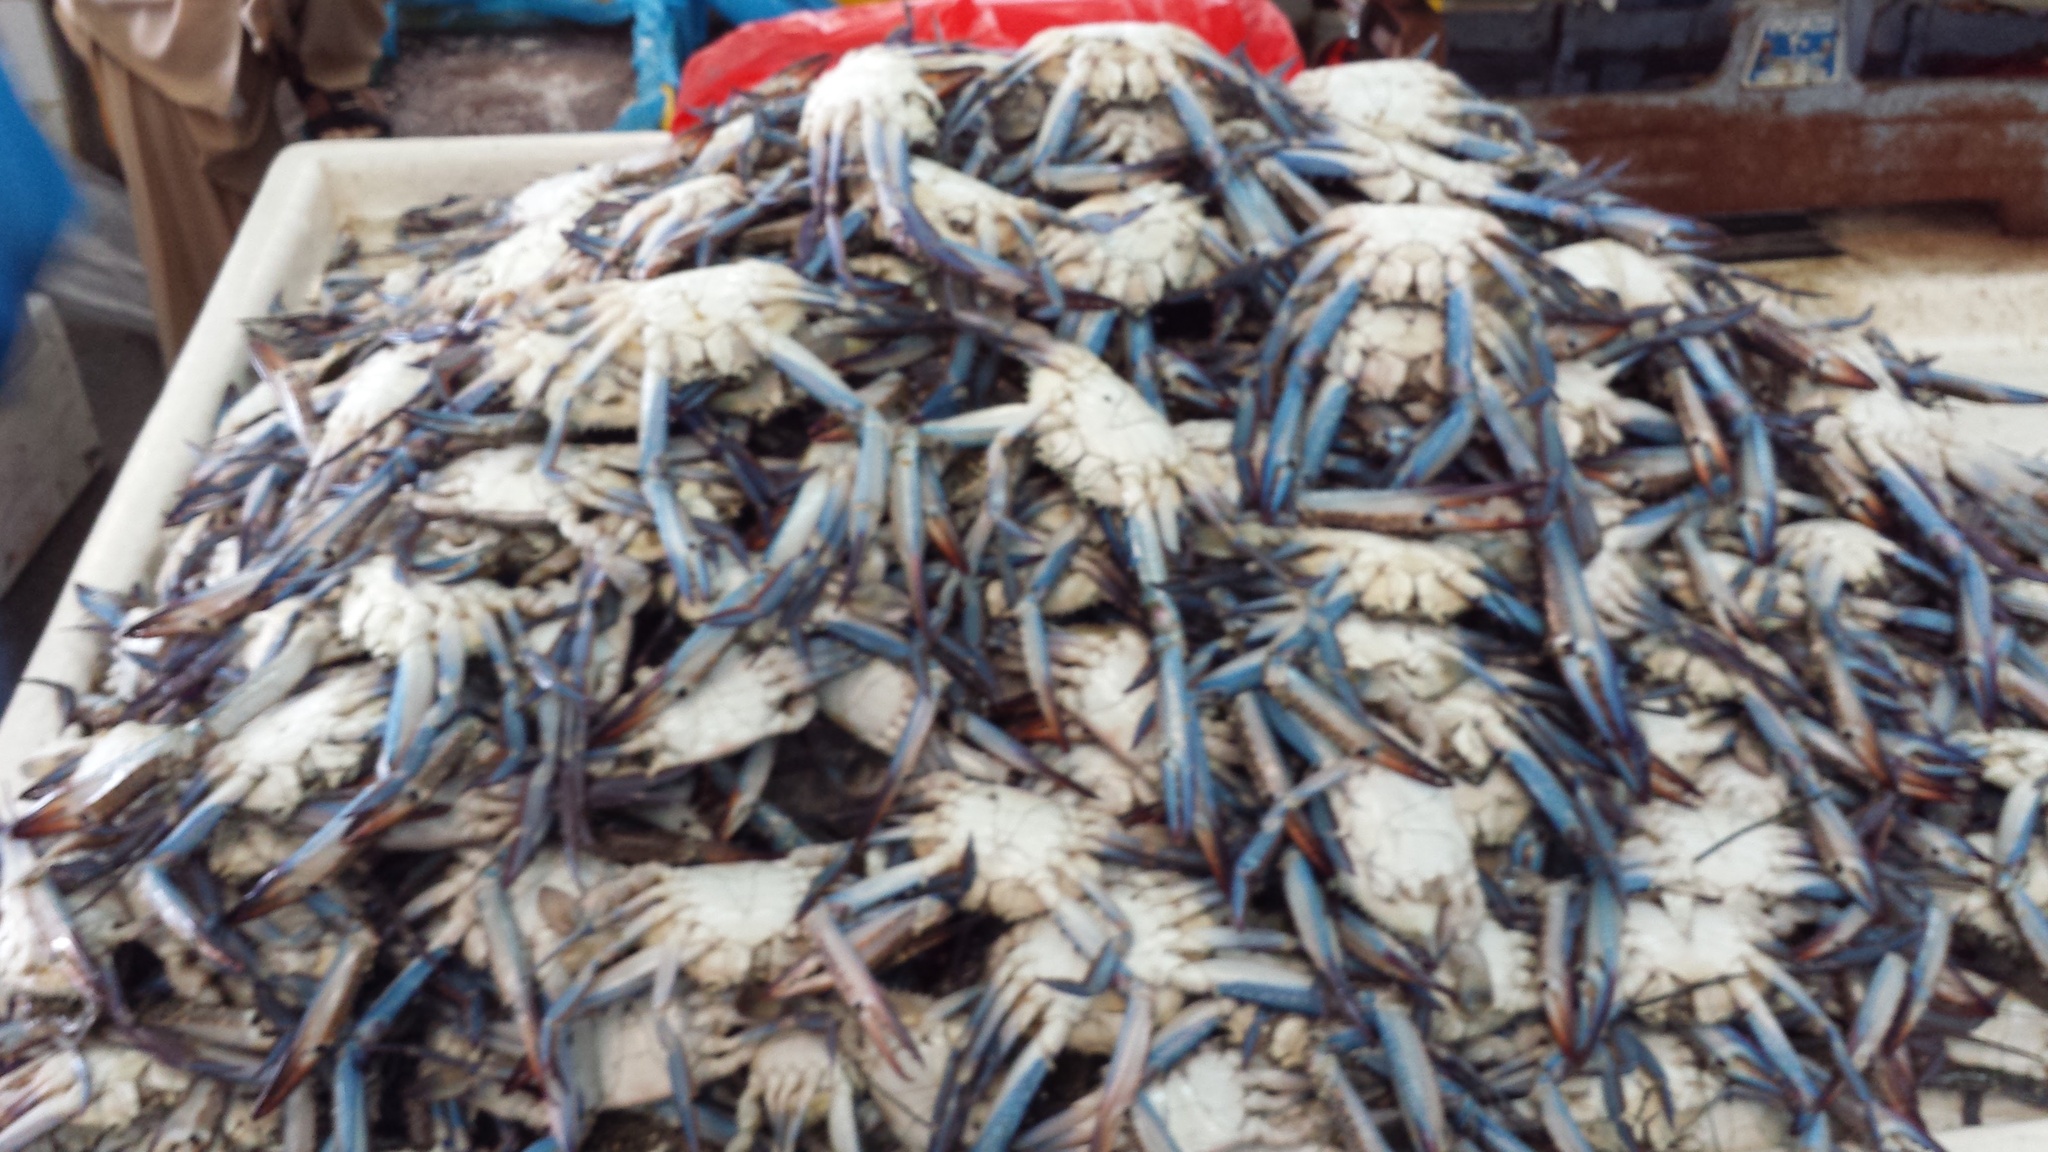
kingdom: Animalia
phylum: Arthropoda
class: Malacostraca
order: Decapoda
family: Portunidae
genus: Portunus
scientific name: Portunus pelagicus
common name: Blue swimming crab
